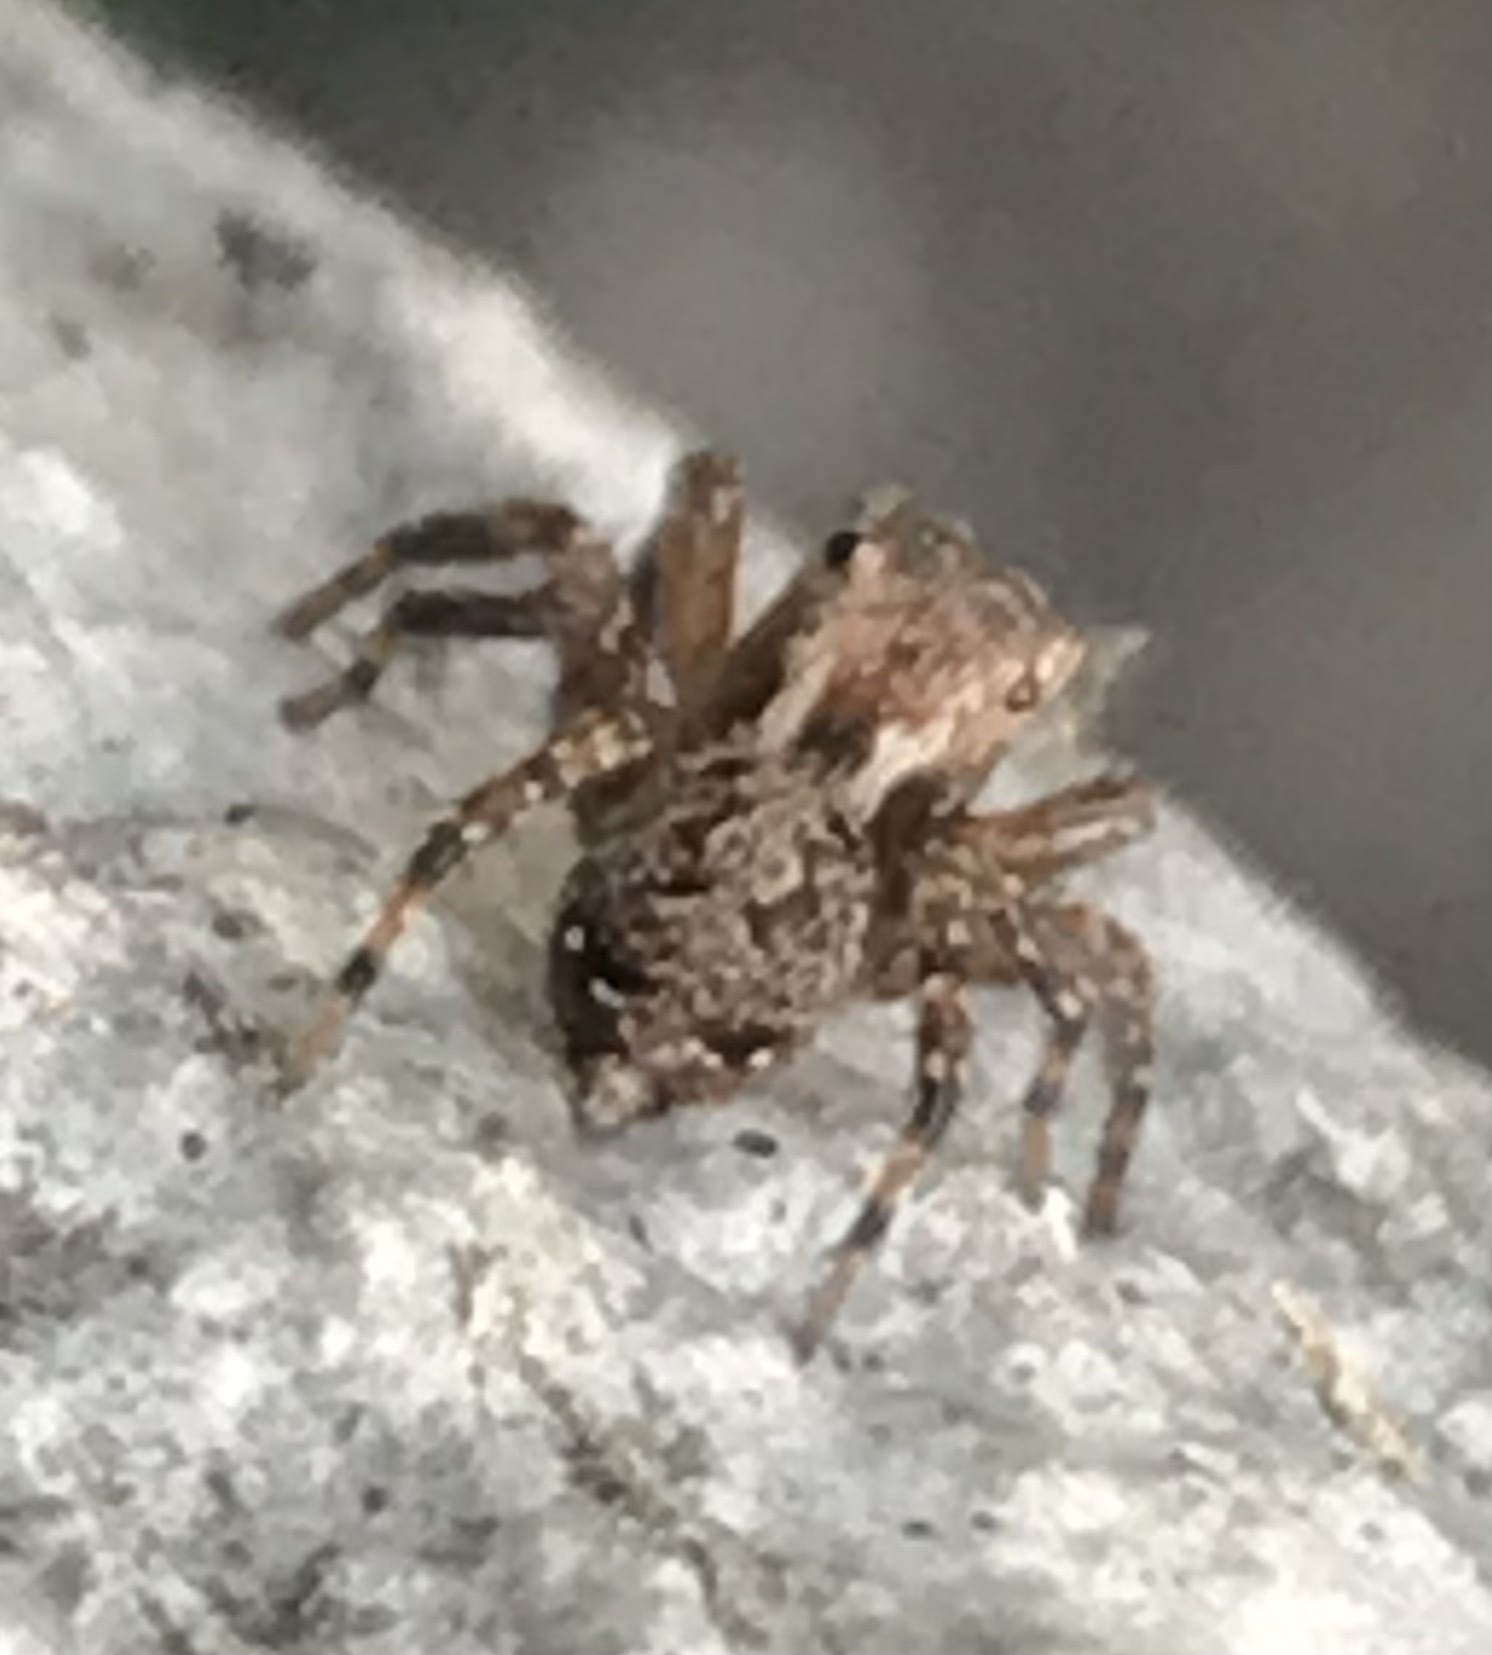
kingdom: Animalia
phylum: Arthropoda
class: Arachnida
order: Araneae
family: Salticidae
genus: Mexigonus
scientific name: Mexigonus morosus
